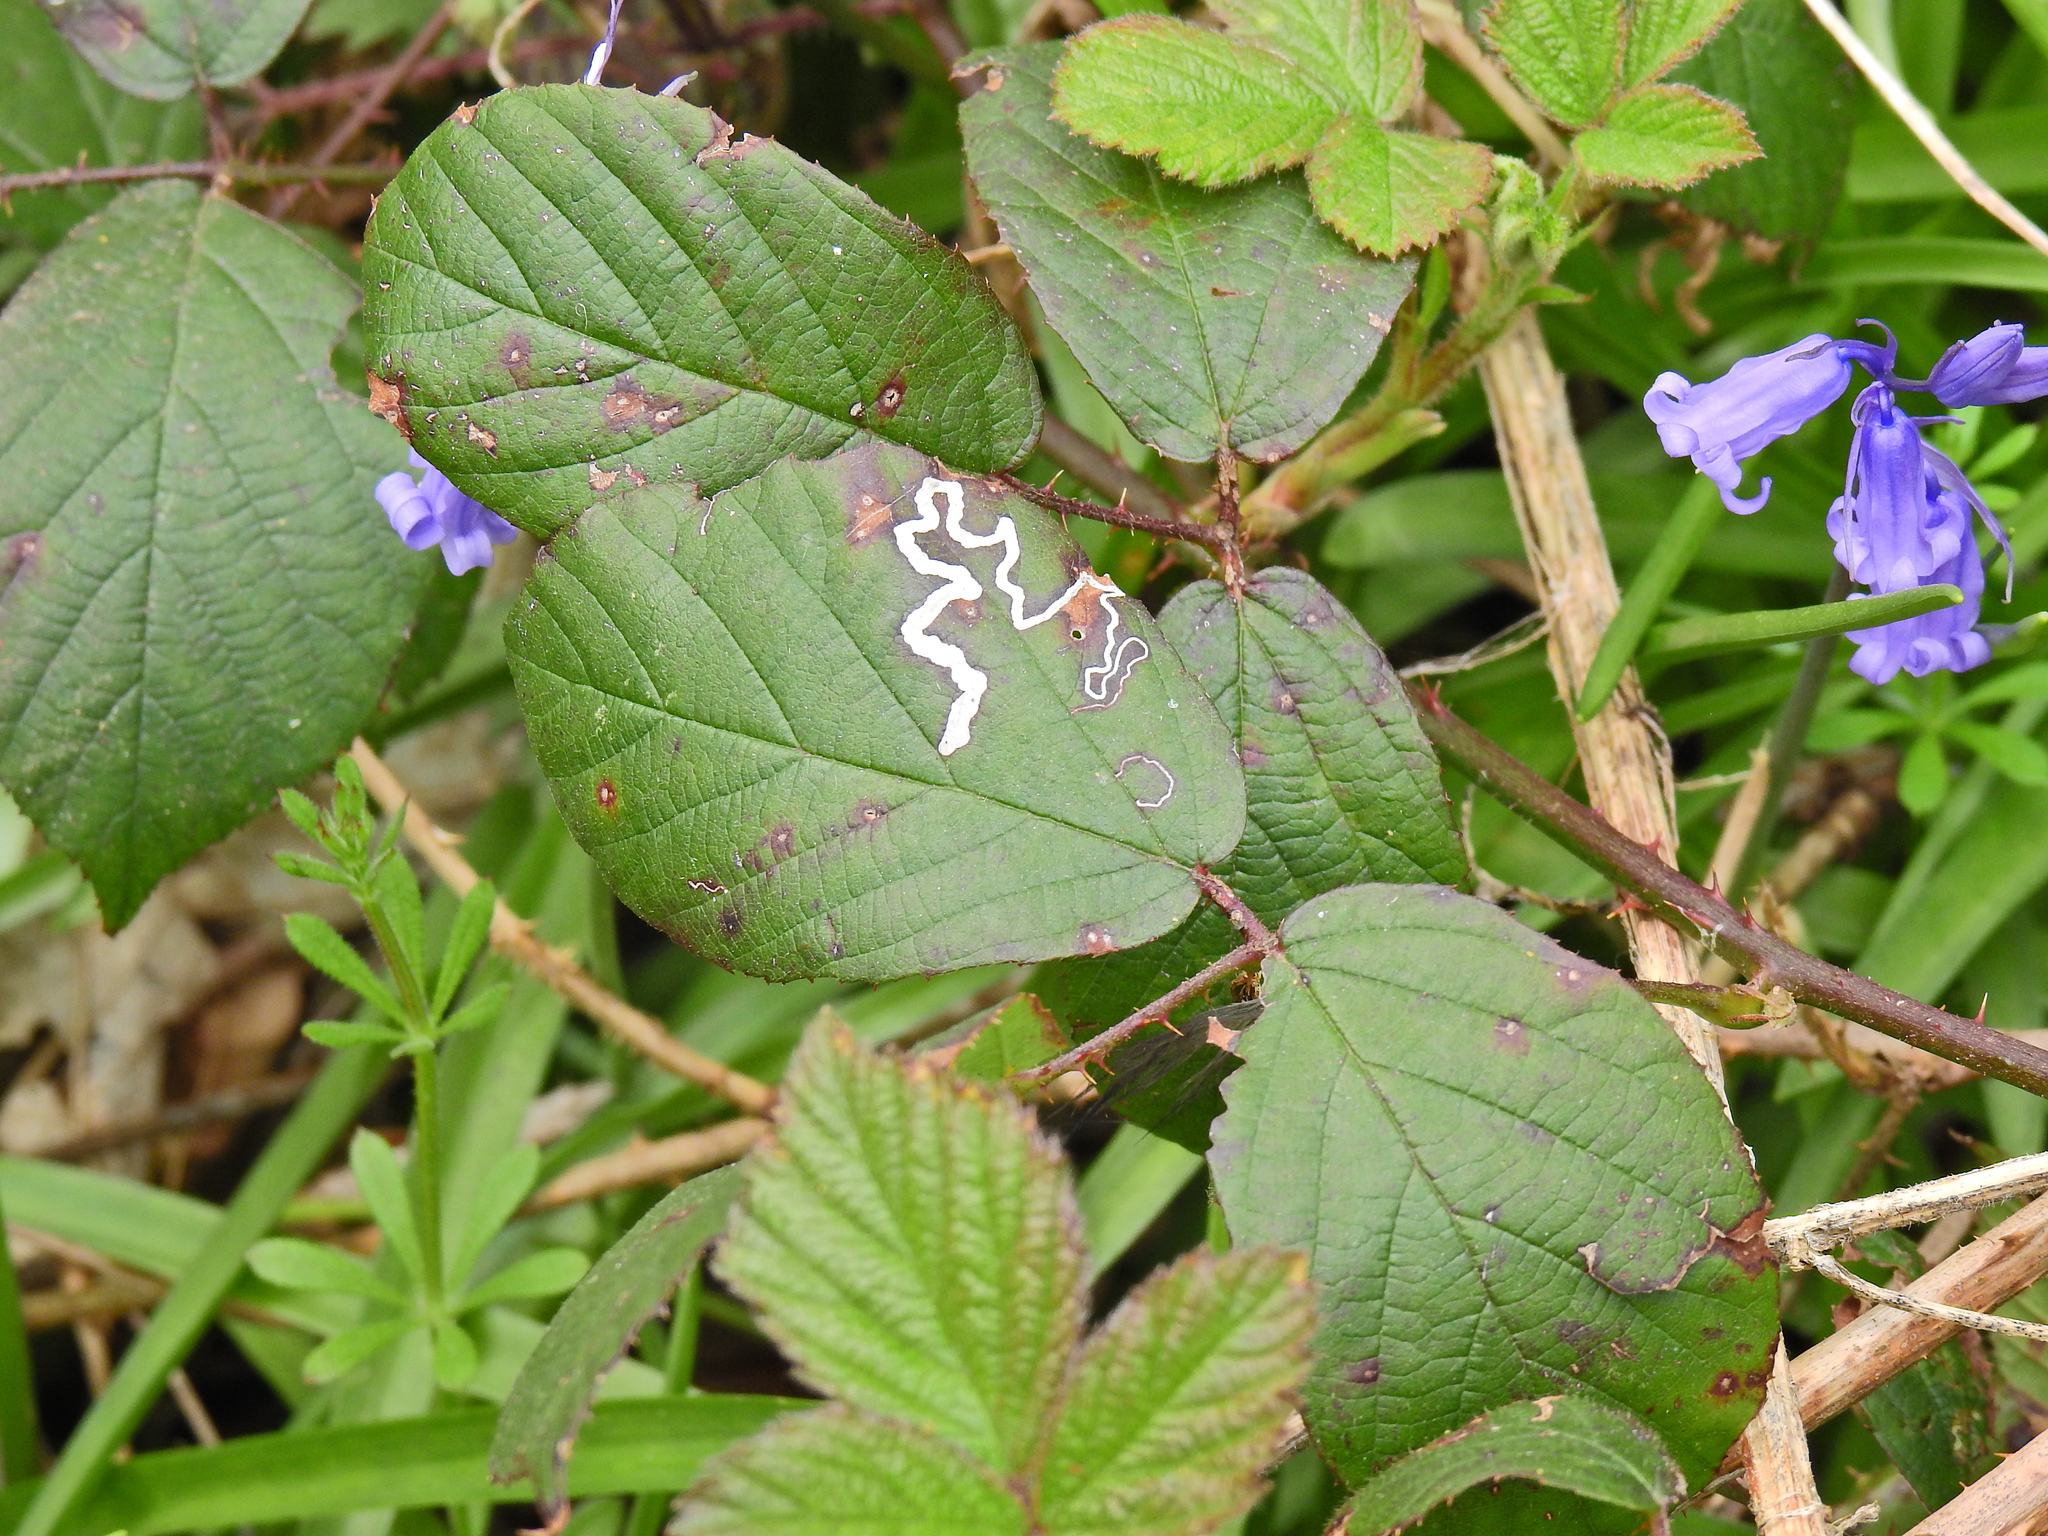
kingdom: Animalia
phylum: Arthropoda
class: Insecta
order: Lepidoptera
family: Nepticulidae
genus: Stigmella
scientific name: Stigmella aurella
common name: Golden pigmy
